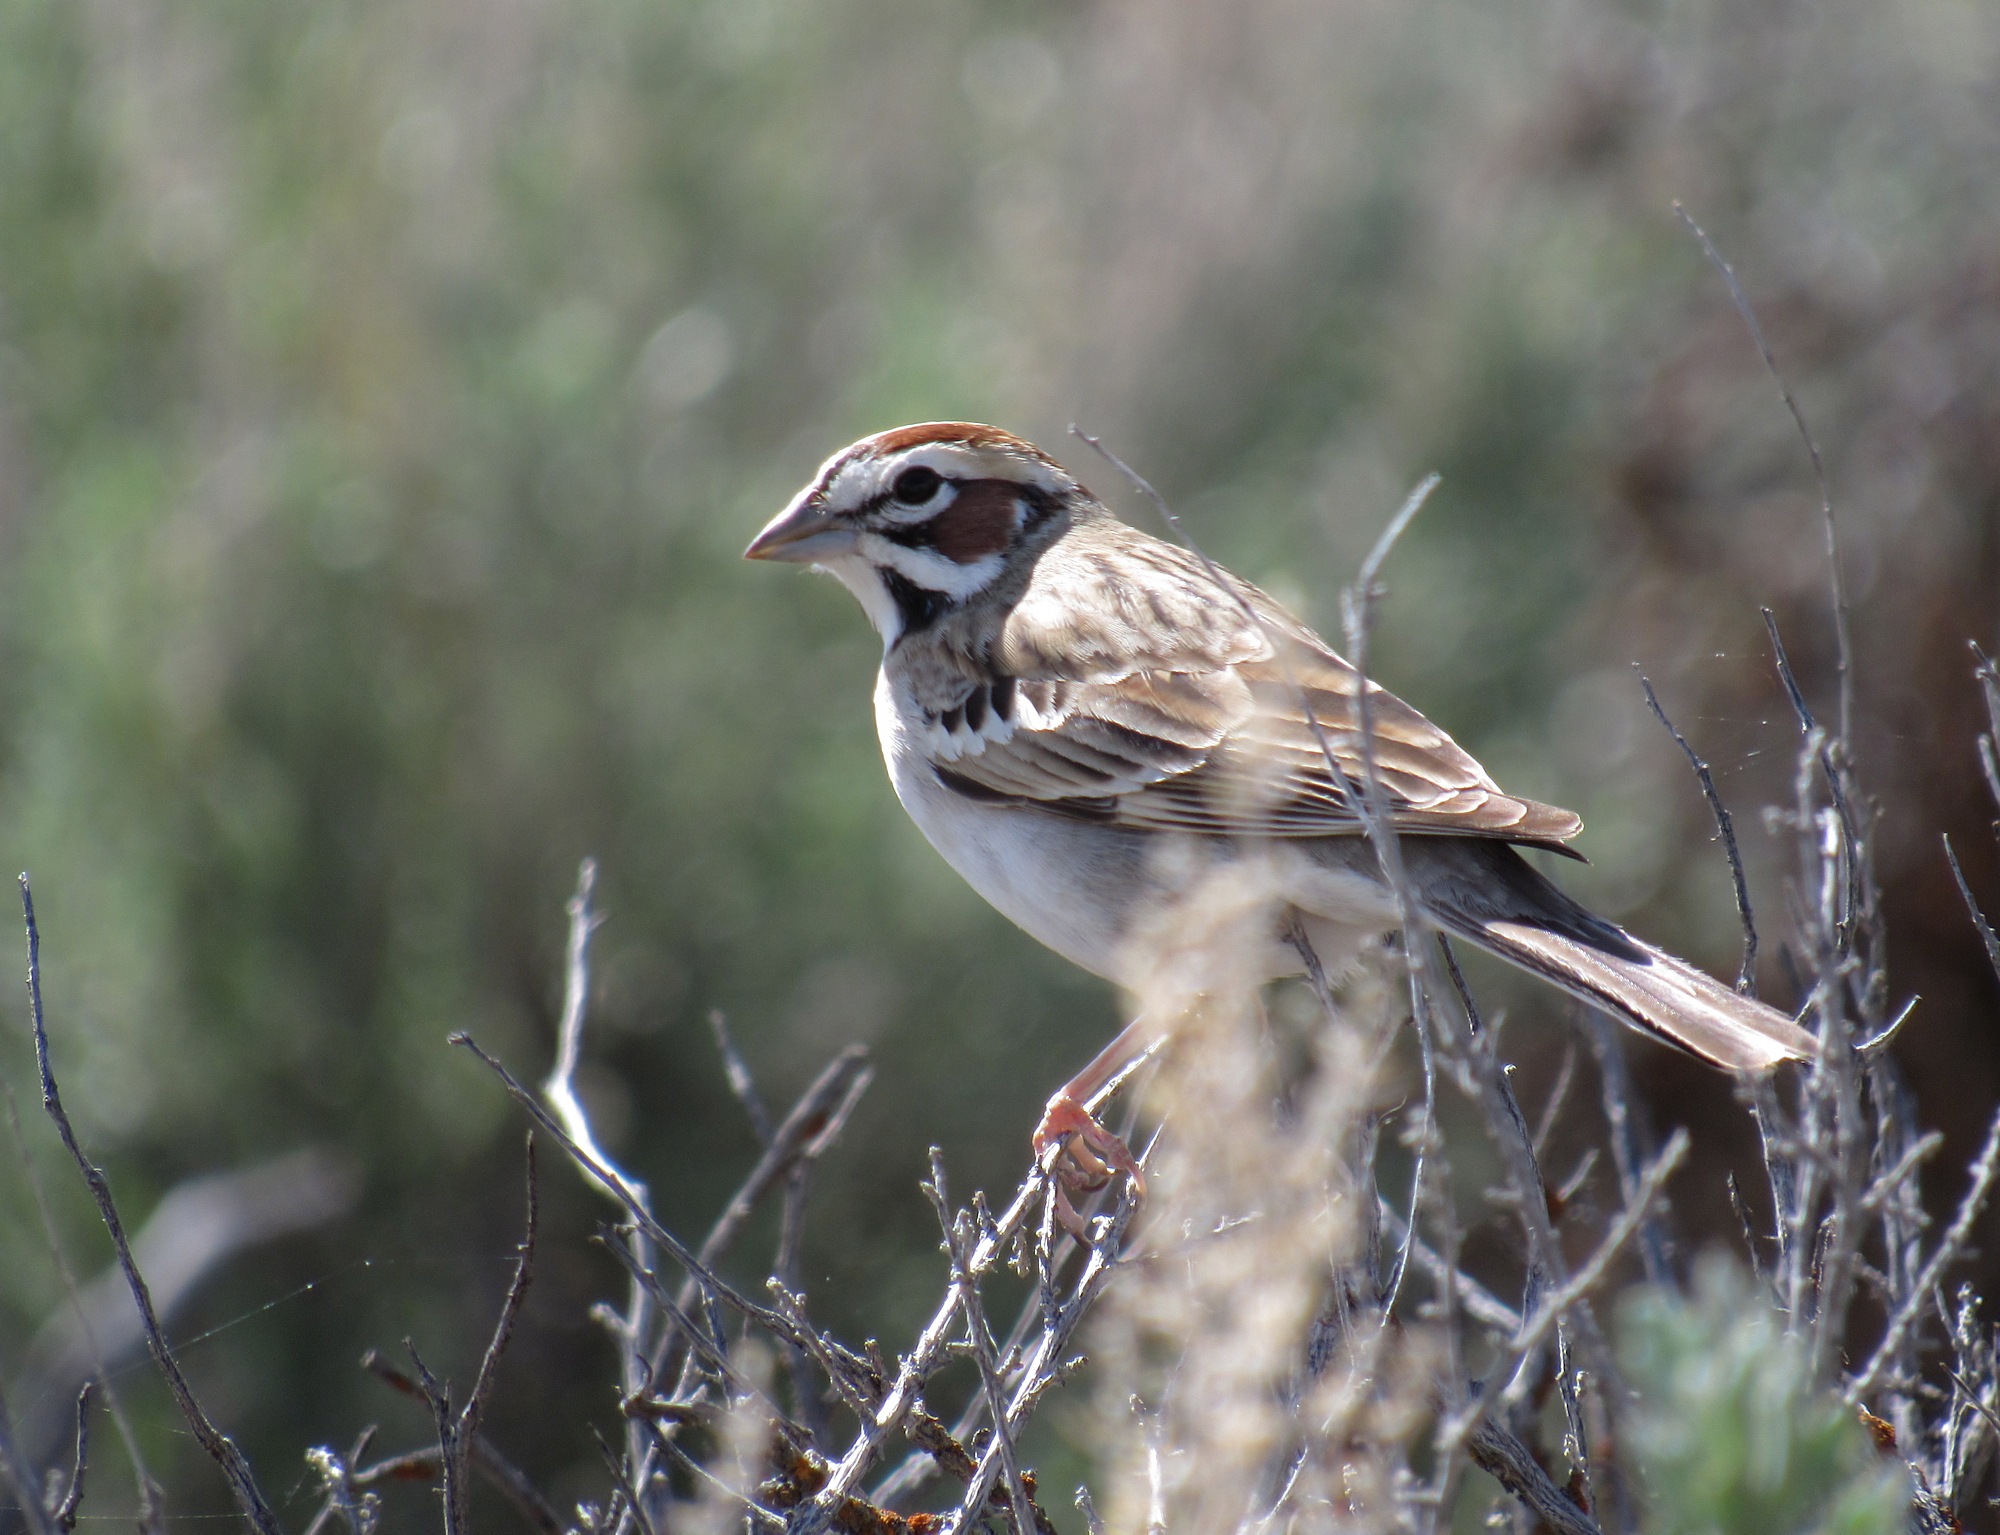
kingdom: Animalia
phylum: Chordata
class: Aves
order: Passeriformes
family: Passerellidae
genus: Chondestes
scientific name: Chondestes grammacus
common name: Lark sparrow
